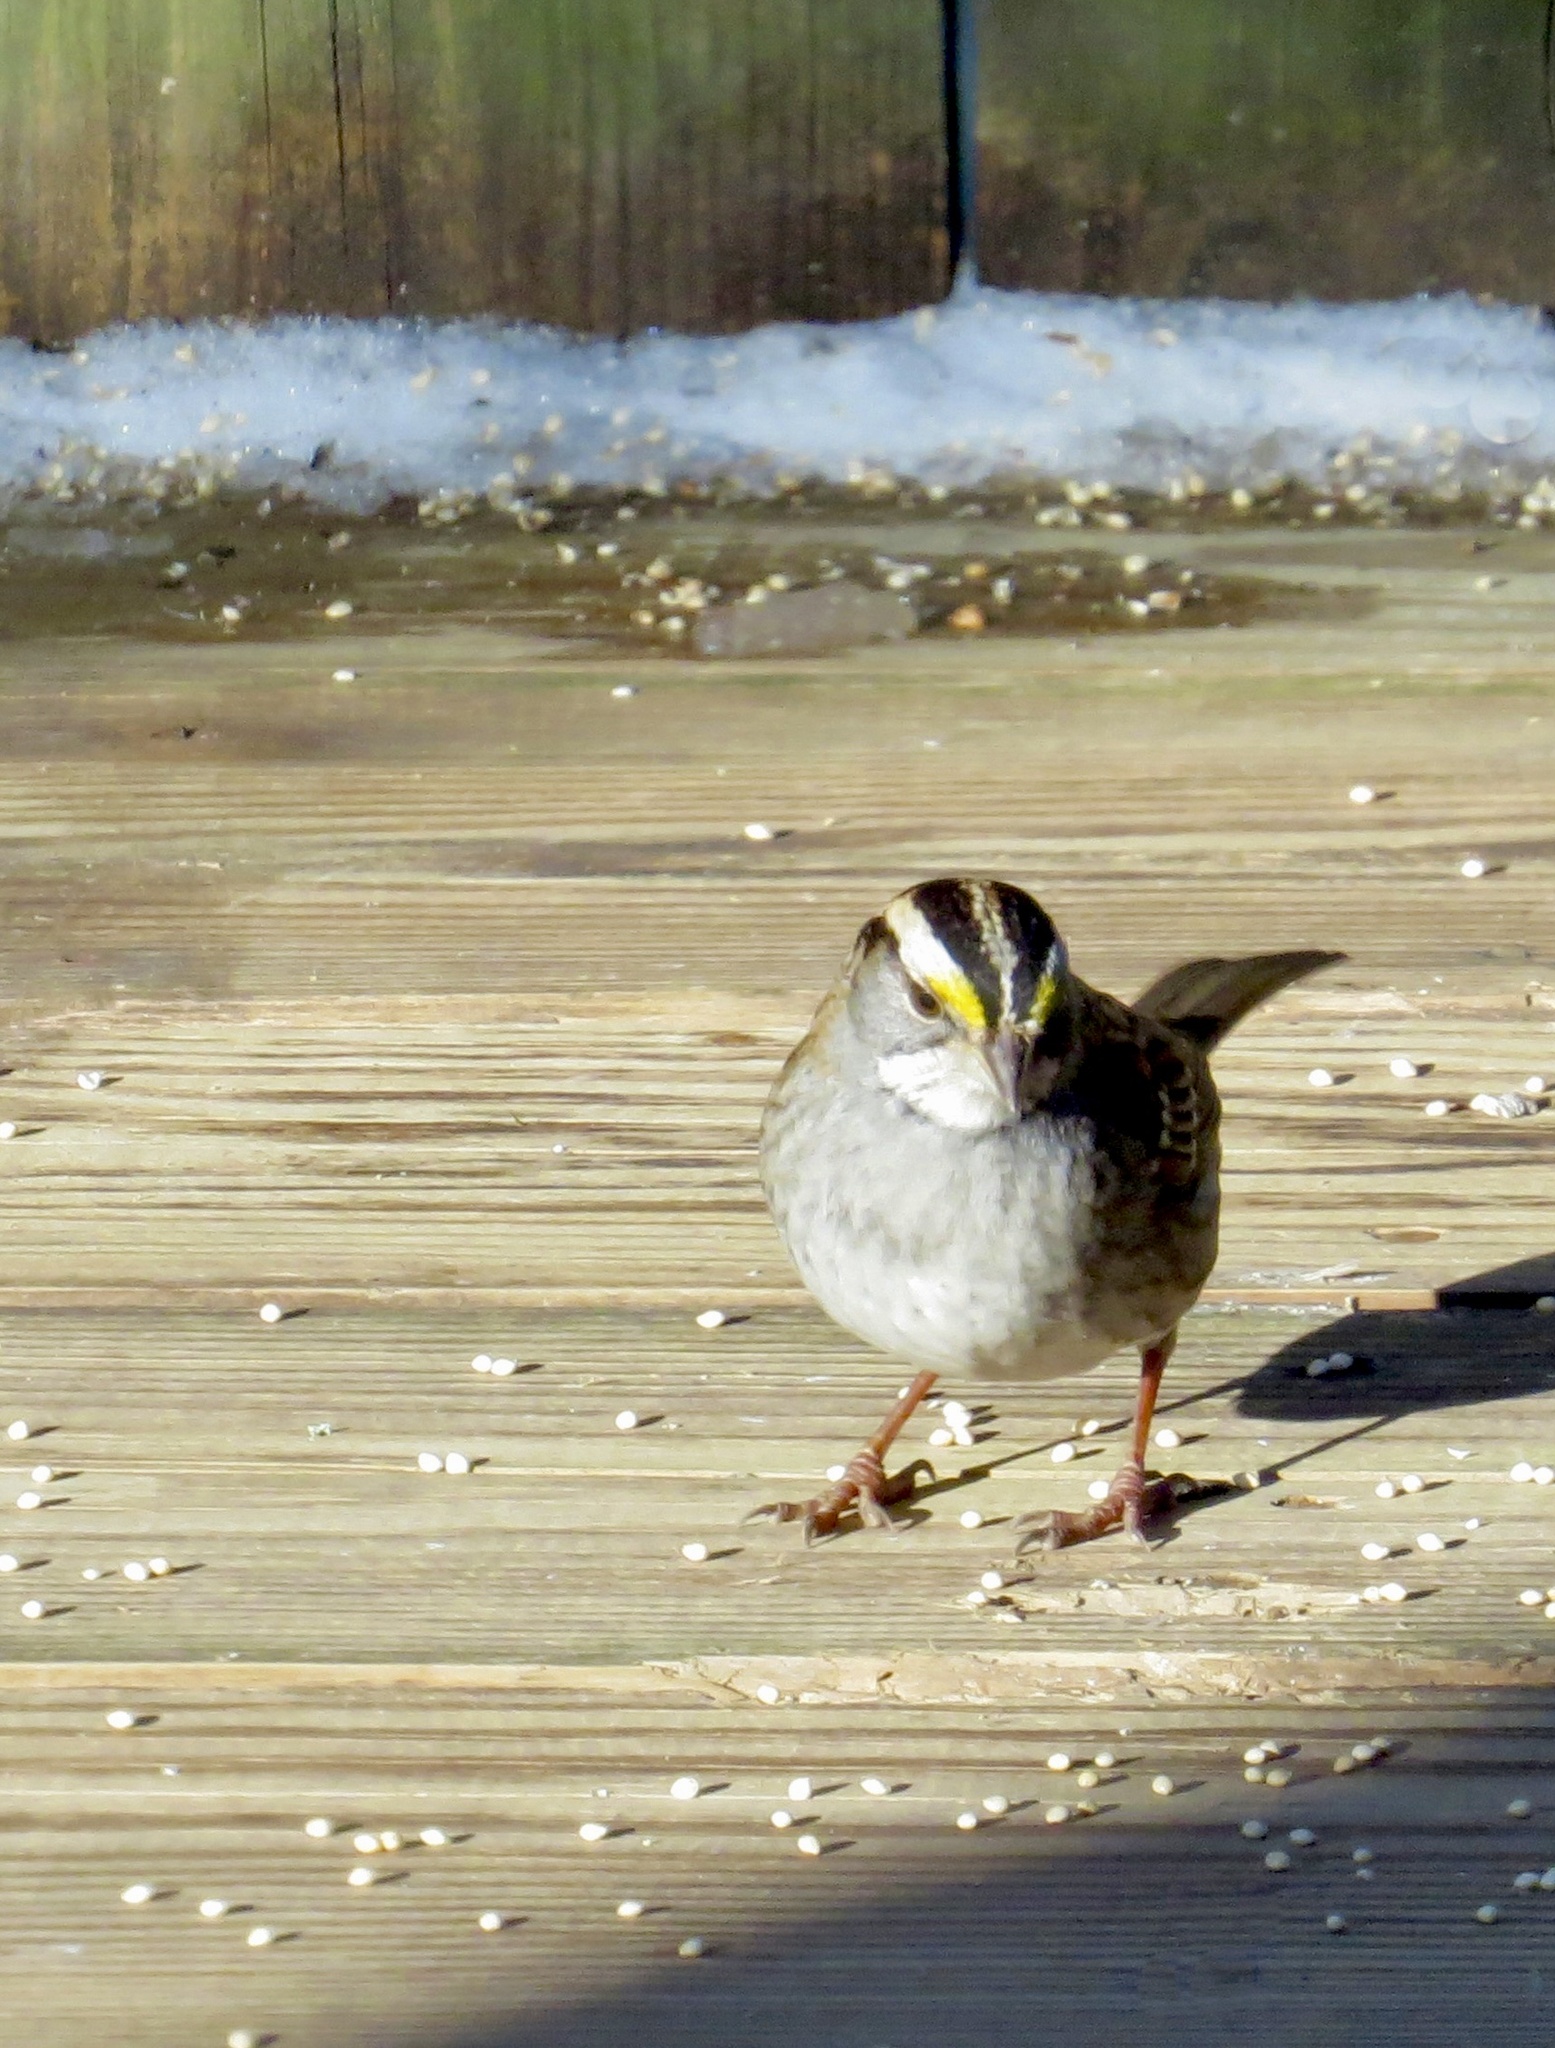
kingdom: Animalia
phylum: Chordata
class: Aves
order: Passeriformes
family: Passerellidae
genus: Zonotrichia
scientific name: Zonotrichia albicollis
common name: White-throated sparrow
